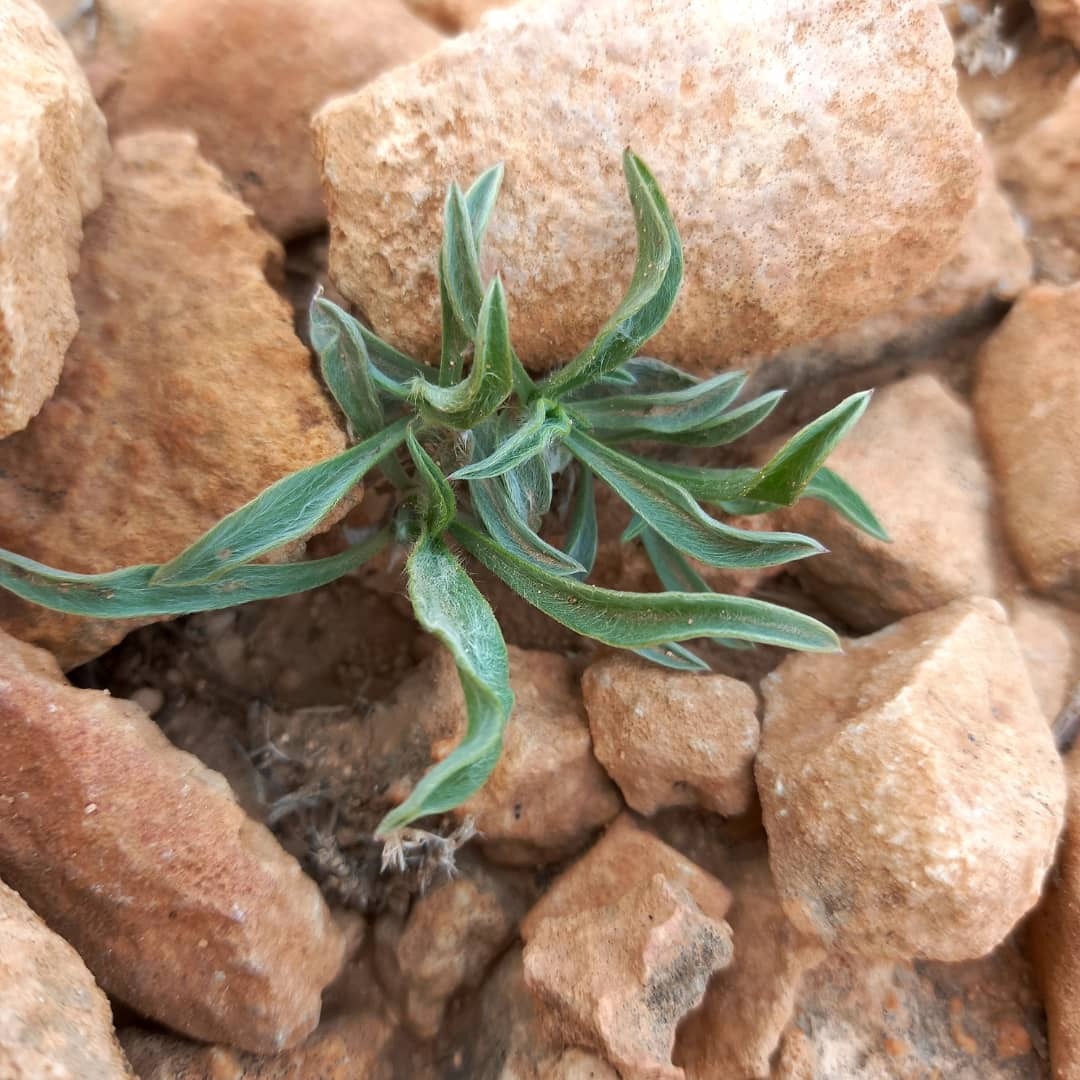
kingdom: Plantae
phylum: Tracheophyta
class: Magnoliopsida
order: Lamiales
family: Plantaginaceae
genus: Plantago
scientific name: Plantago albicans
